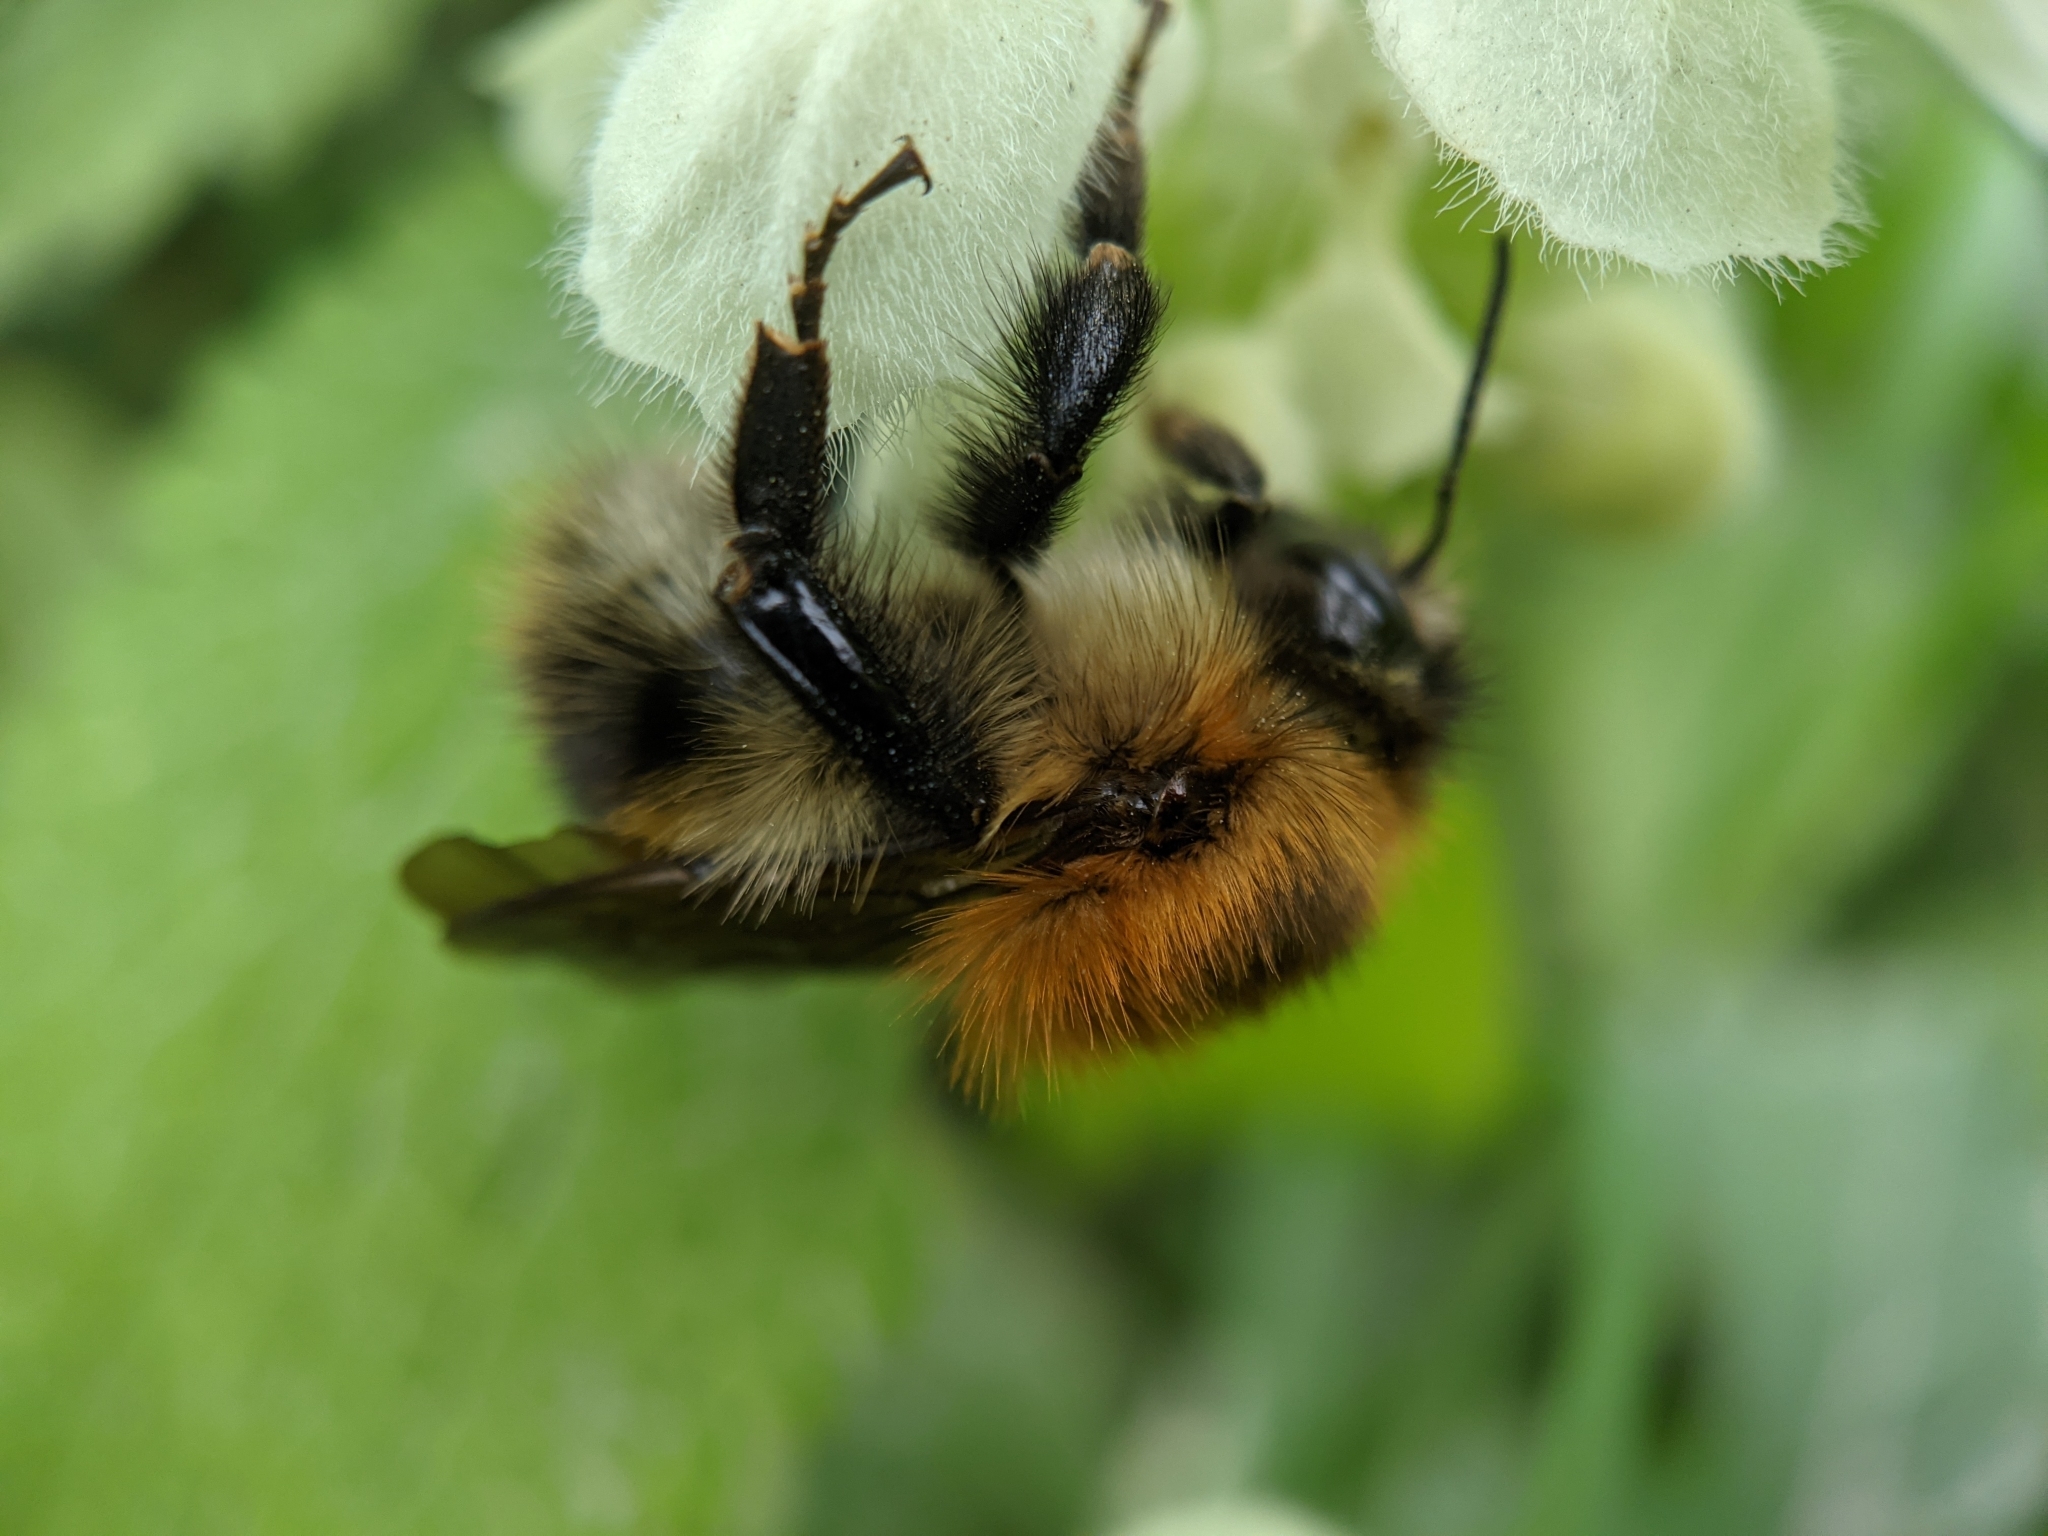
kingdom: Animalia
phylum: Arthropoda
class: Insecta
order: Hymenoptera
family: Apidae
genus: Bombus
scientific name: Bombus pascuorum
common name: Common carder bee
